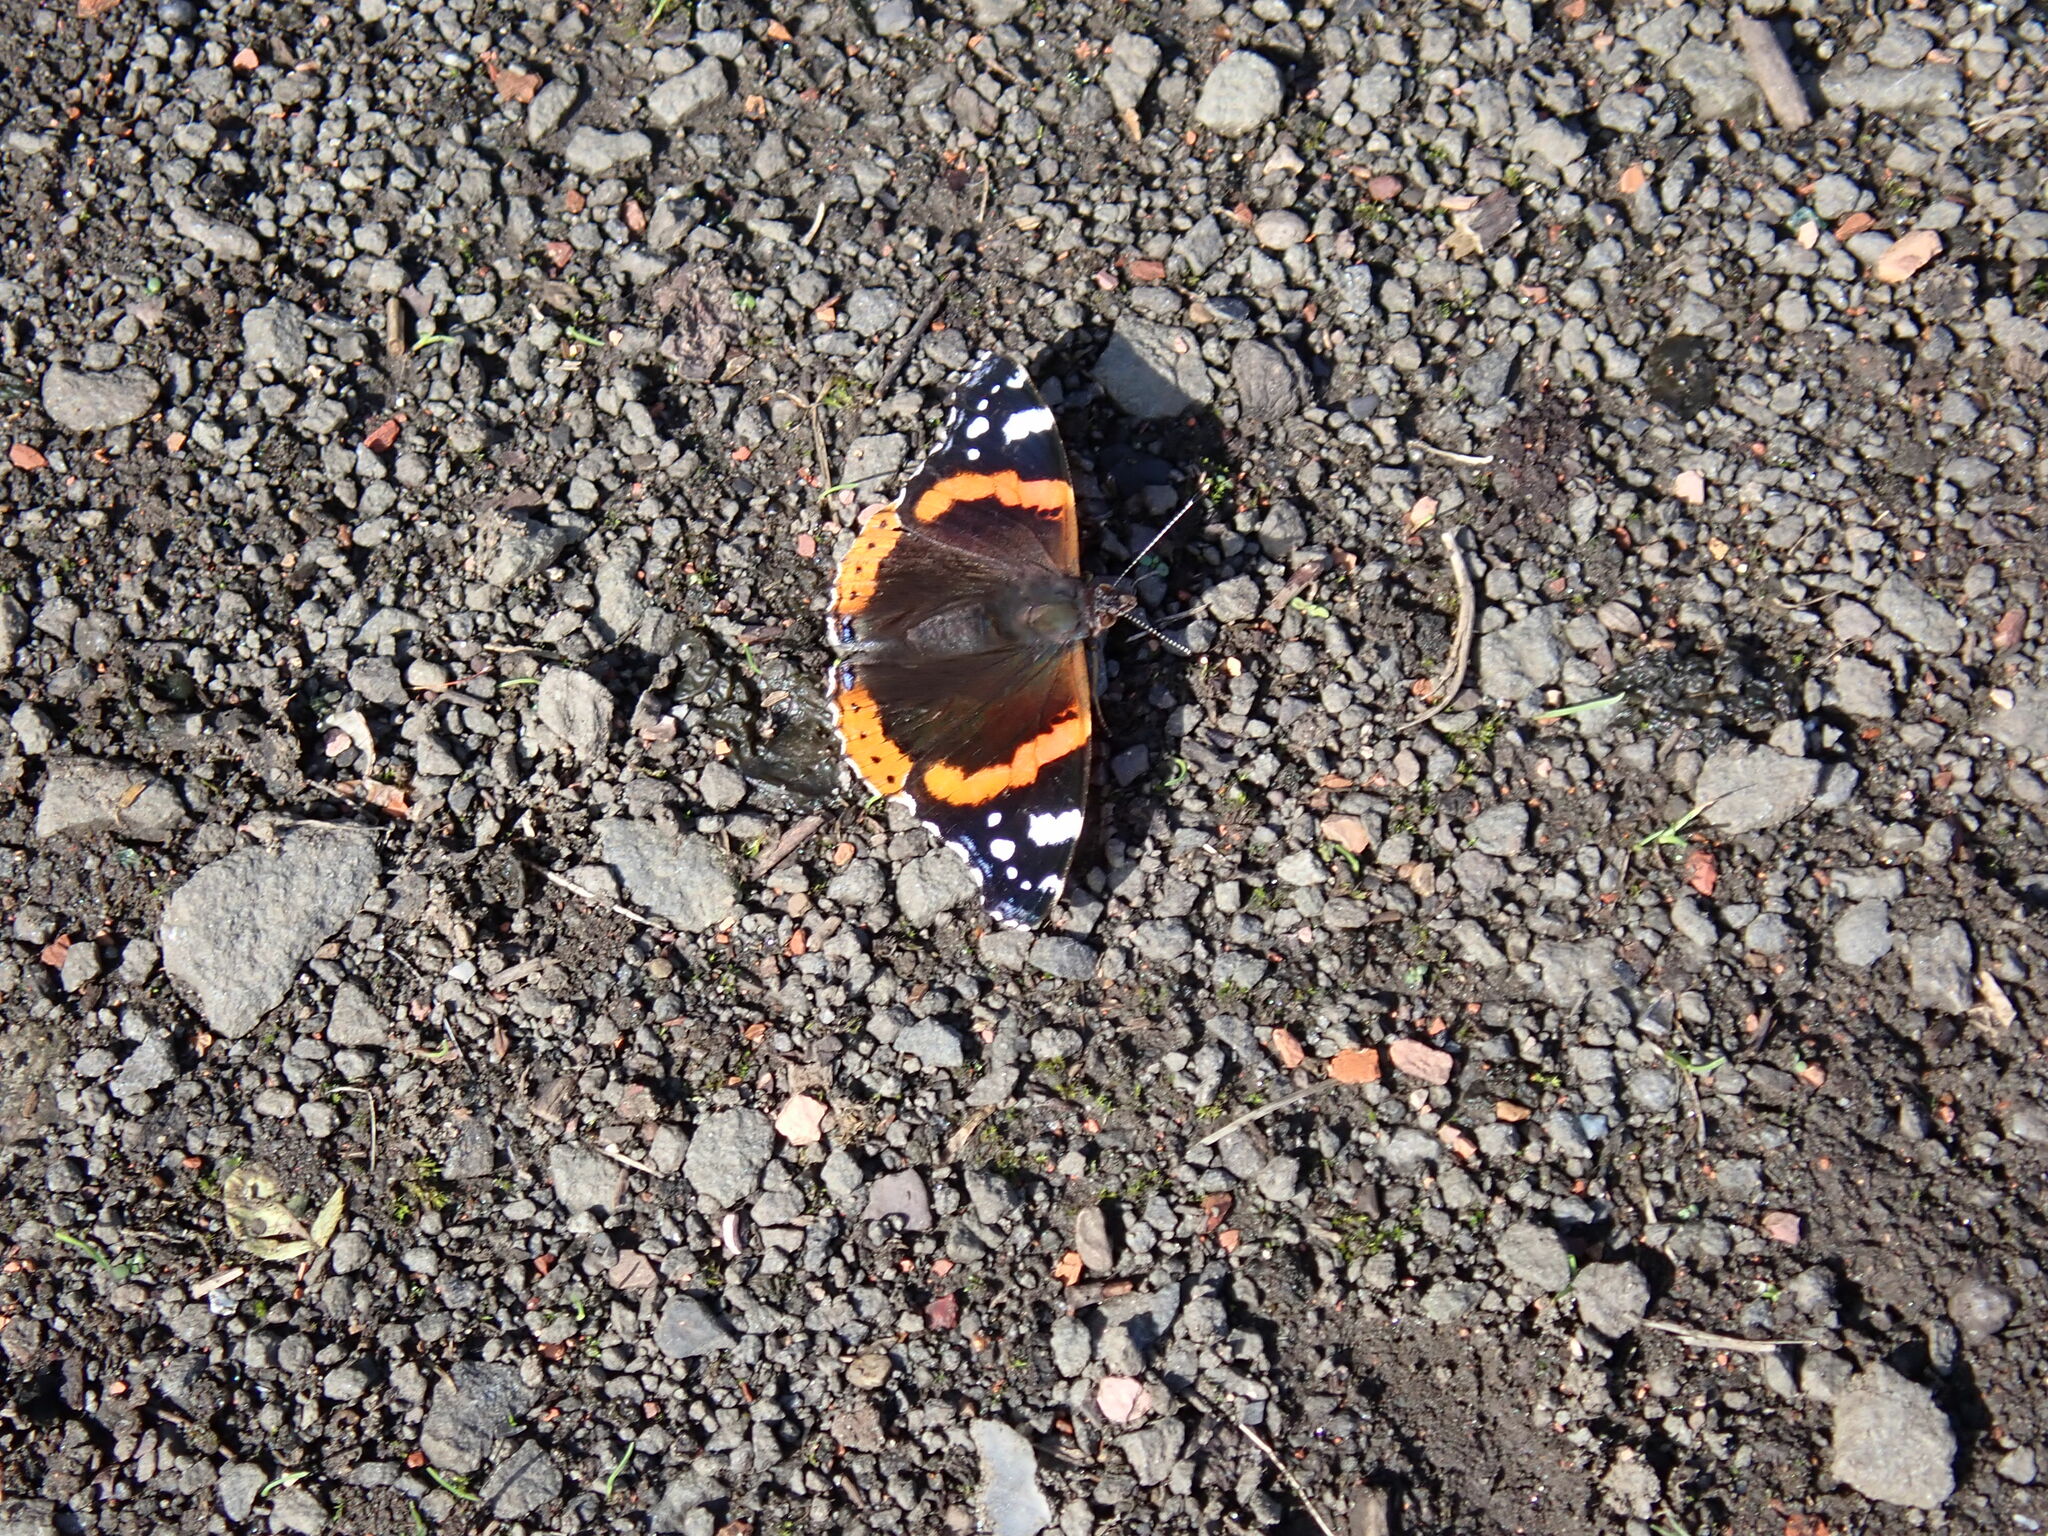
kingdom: Animalia
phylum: Arthropoda
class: Insecta
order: Lepidoptera
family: Nymphalidae
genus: Vanessa
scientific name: Vanessa atalanta
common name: Red admiral
